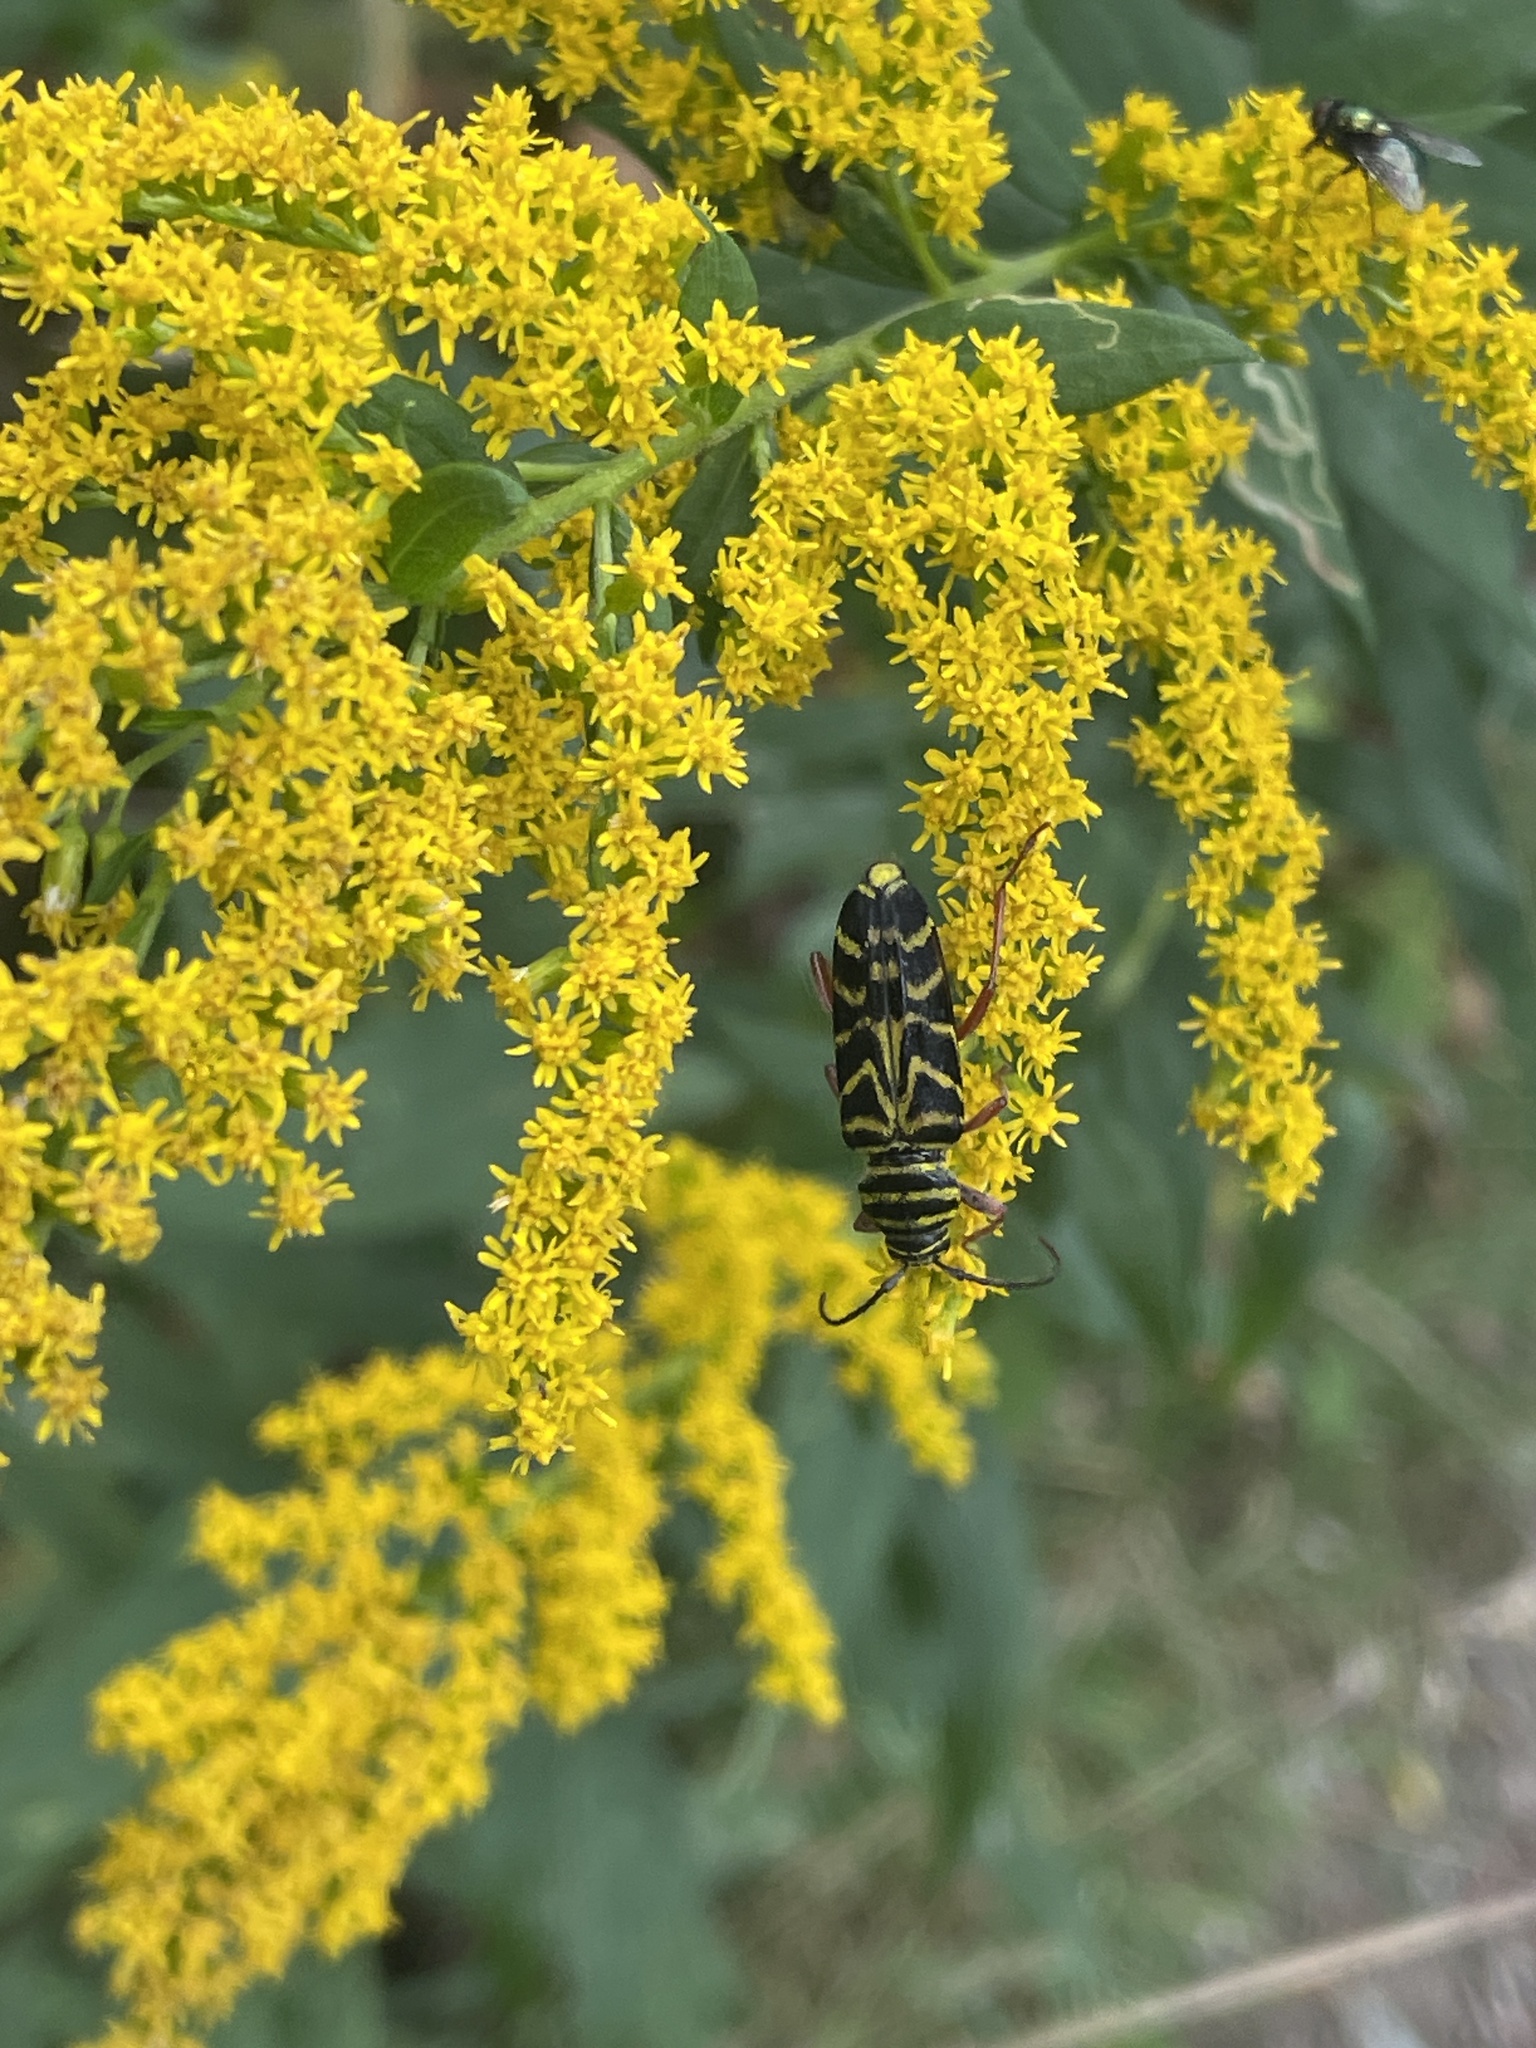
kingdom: Animalia
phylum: Arthropoda
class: Insecta
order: Coleoptera
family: Cerambycidae
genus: Megacyllene
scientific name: Megacyllene robiniae
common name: Locust borer
